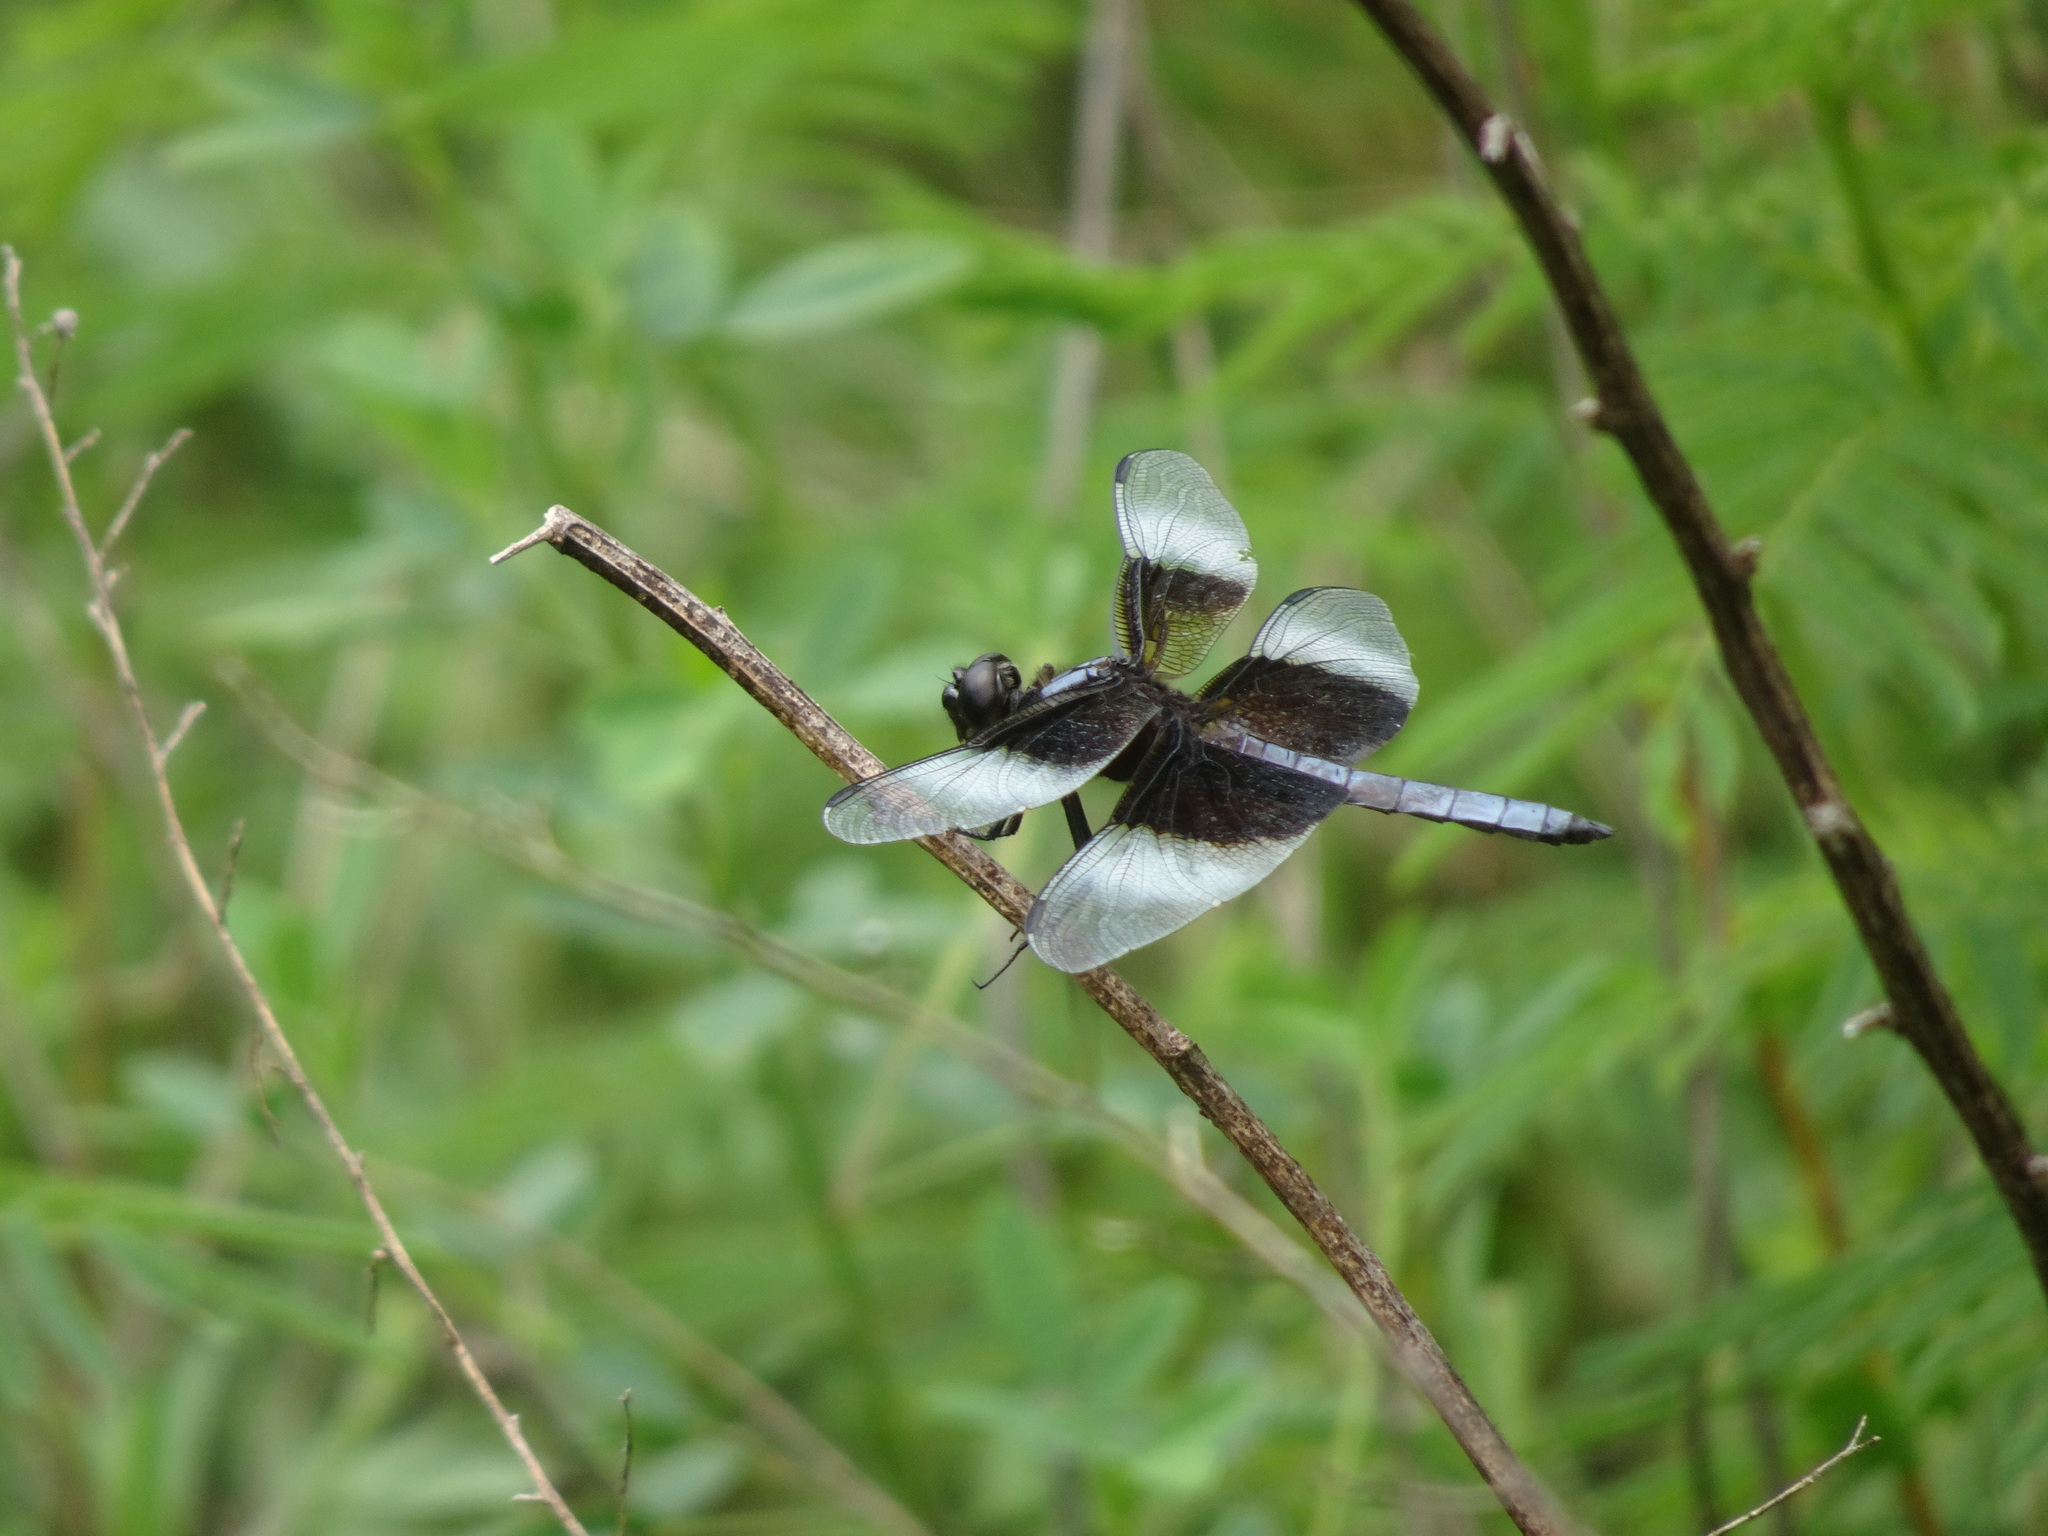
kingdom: Animalia
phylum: Arthropoda
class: Insecta
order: Odonata
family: Libellulidae
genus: Libellula
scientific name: Libellula luctuosa
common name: Widow skimmer
